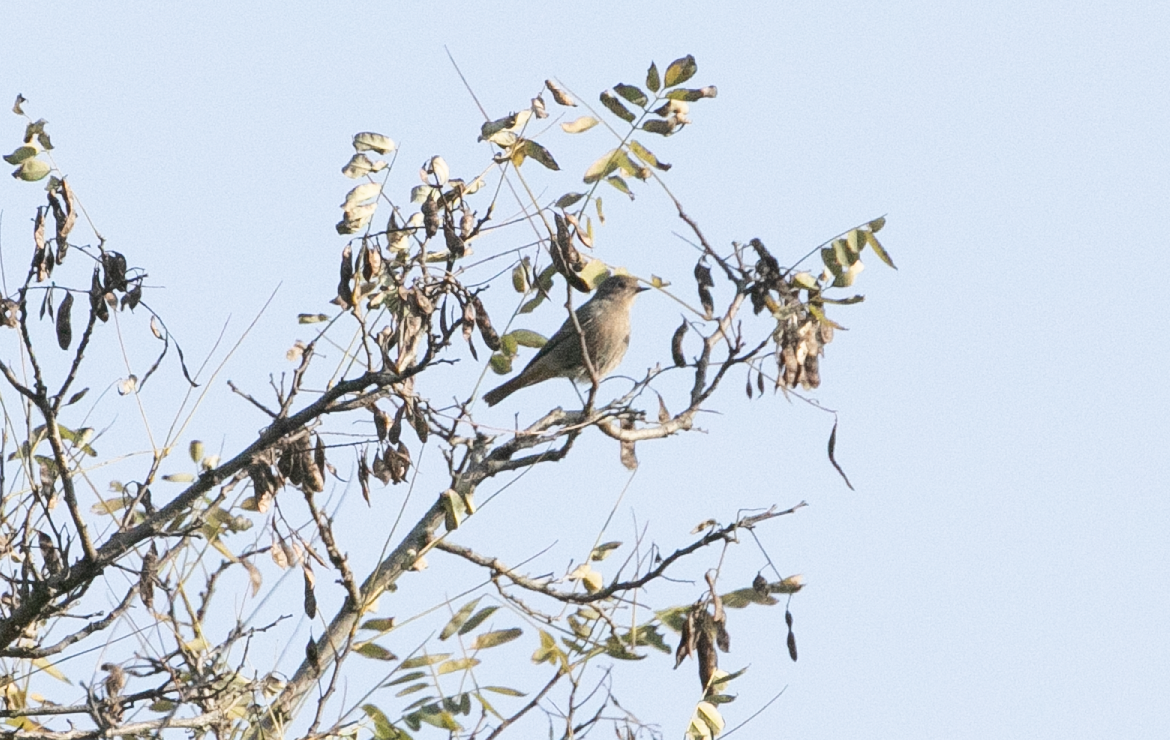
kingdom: Animalia
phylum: Chordata
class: Aves
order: Passeriformes
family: Muscicapidae
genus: Phoenicurus
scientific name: Phoenicurus ochruros
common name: Black redstart
